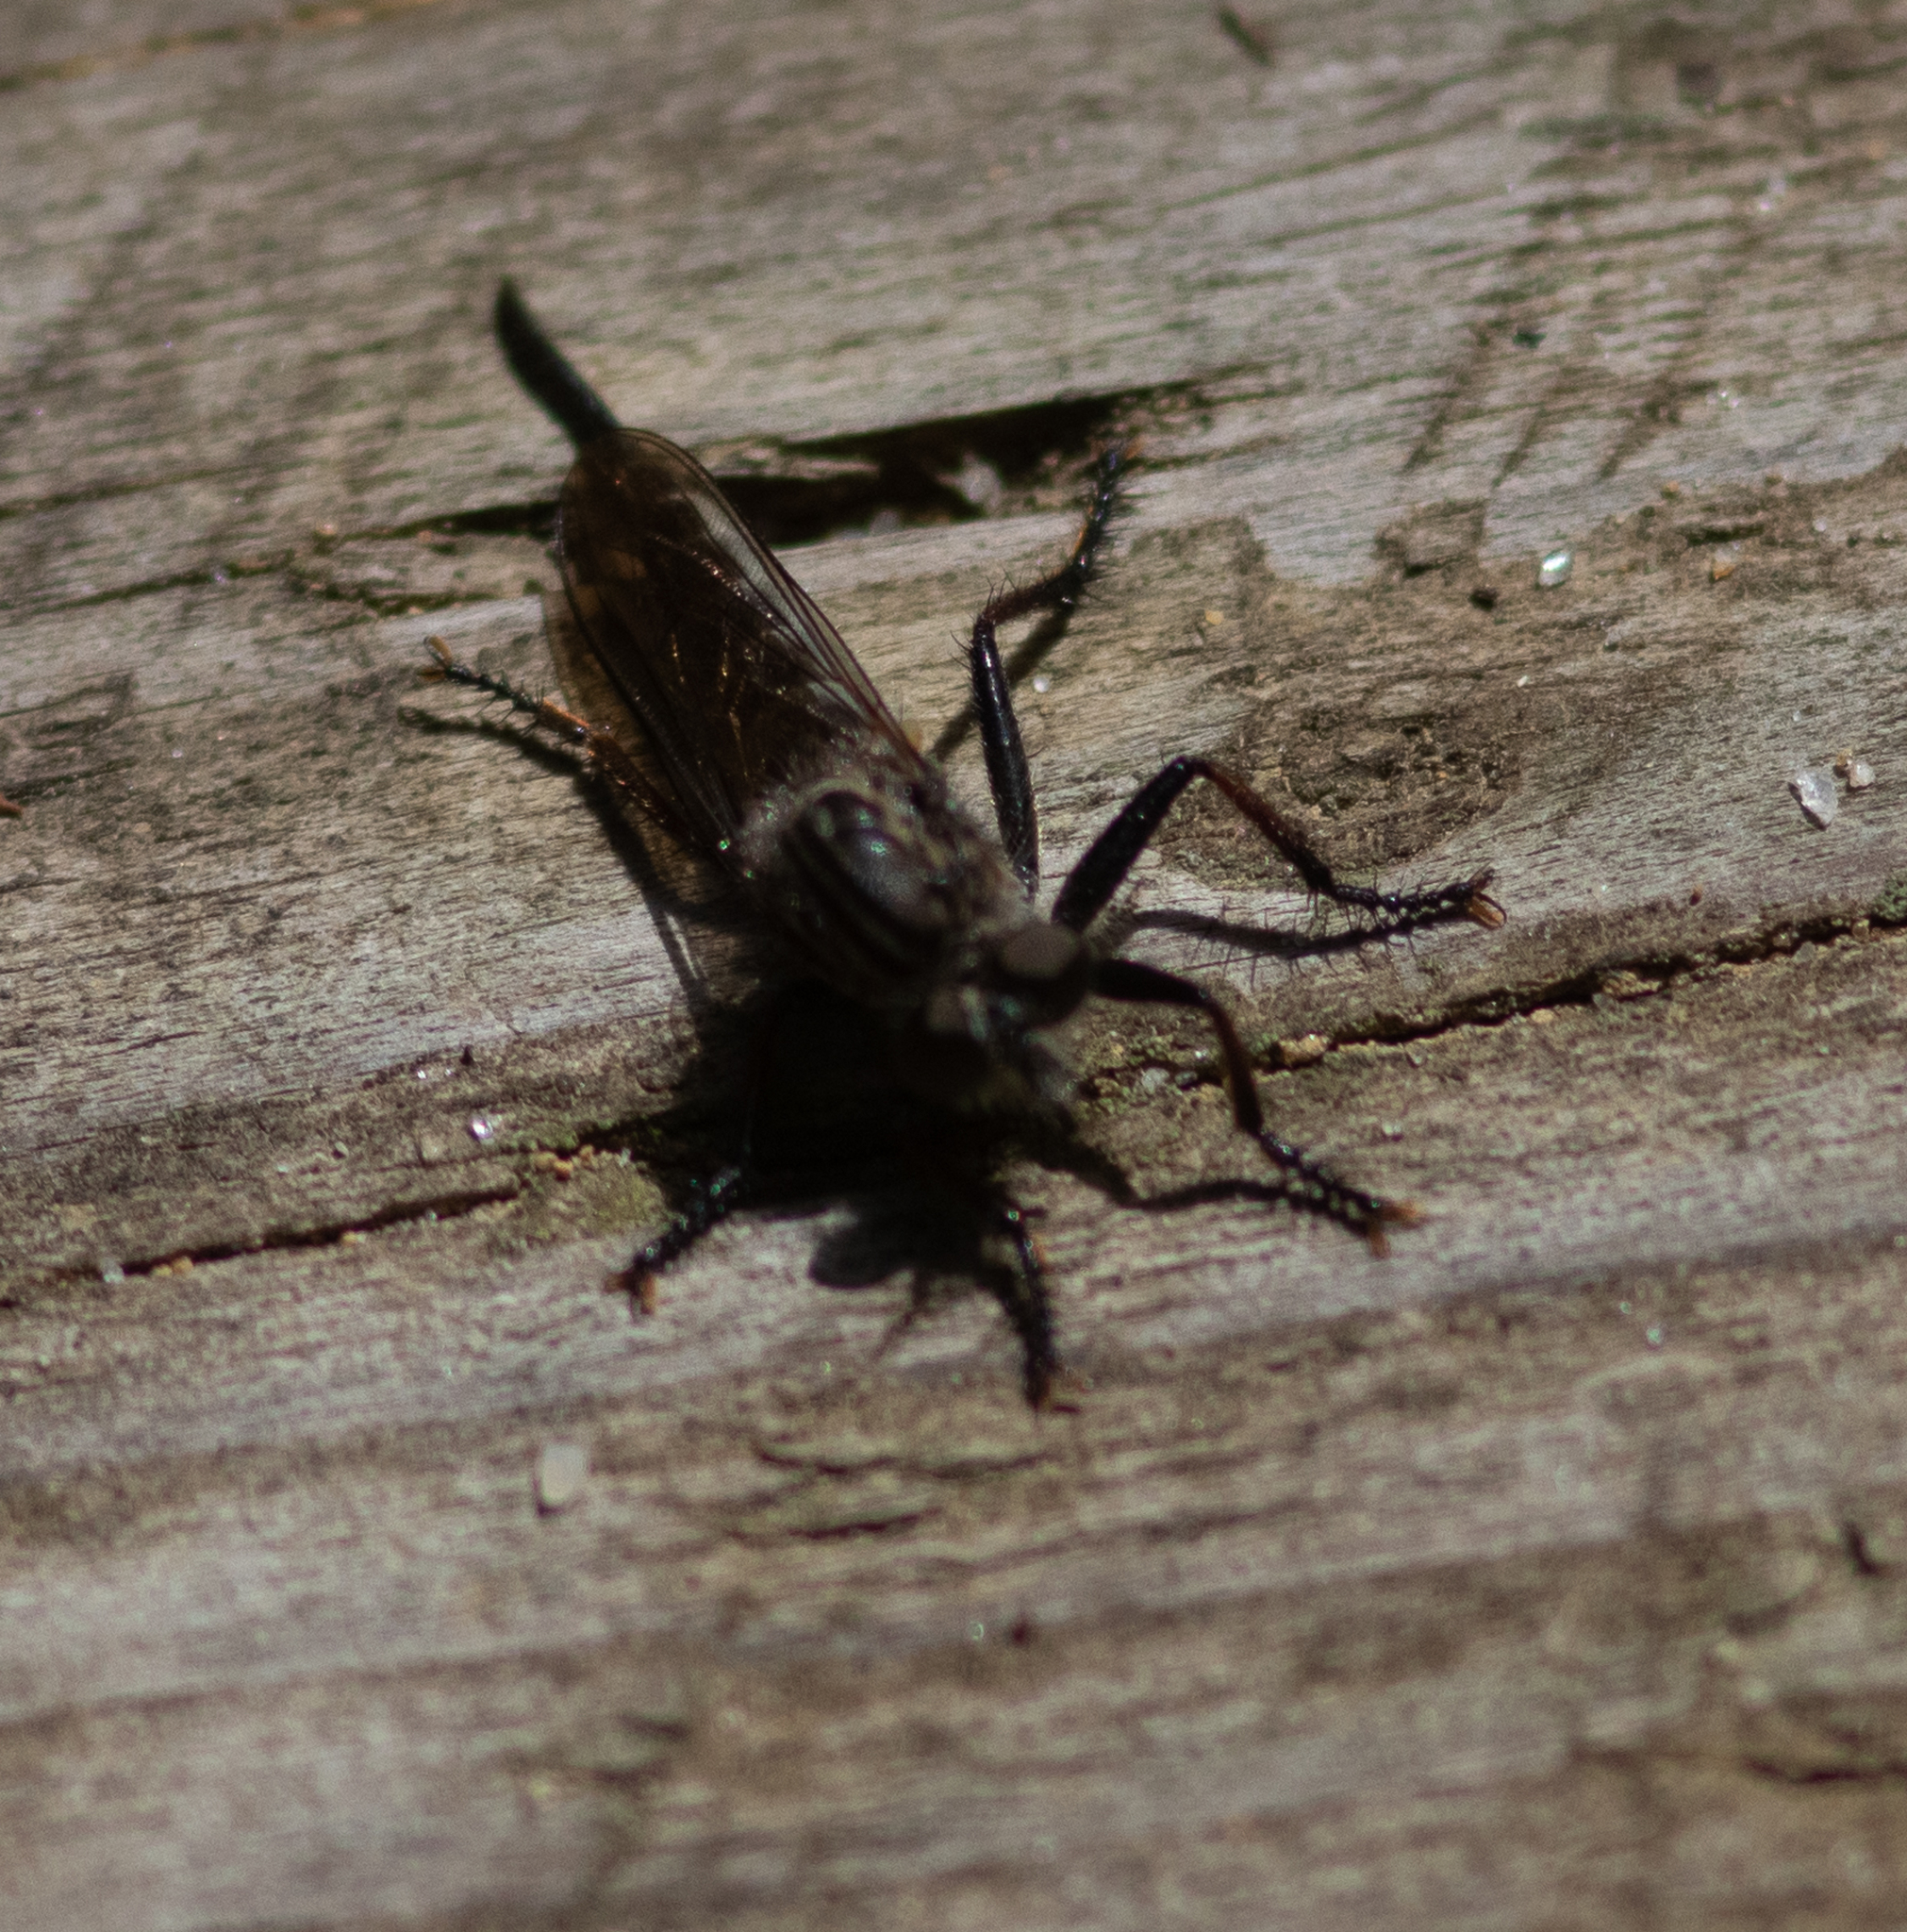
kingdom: Animalia
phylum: Arthropoda
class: Insecta
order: Diptera
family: Asilidae
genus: Efferia
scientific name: Efferia aestuans
